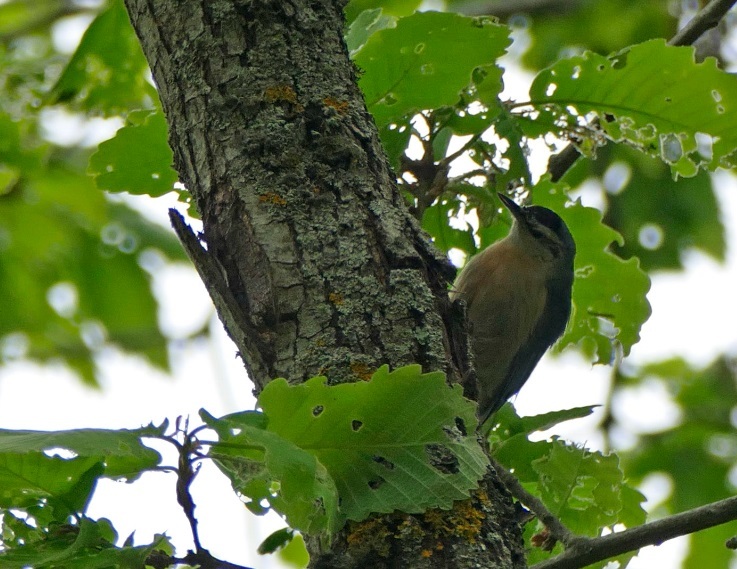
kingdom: Animalia
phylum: Chordata
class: Aves
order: Passeriformes
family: Sittidae
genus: Sitta
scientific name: Sitta ledanti
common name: Algerian nuthatch
